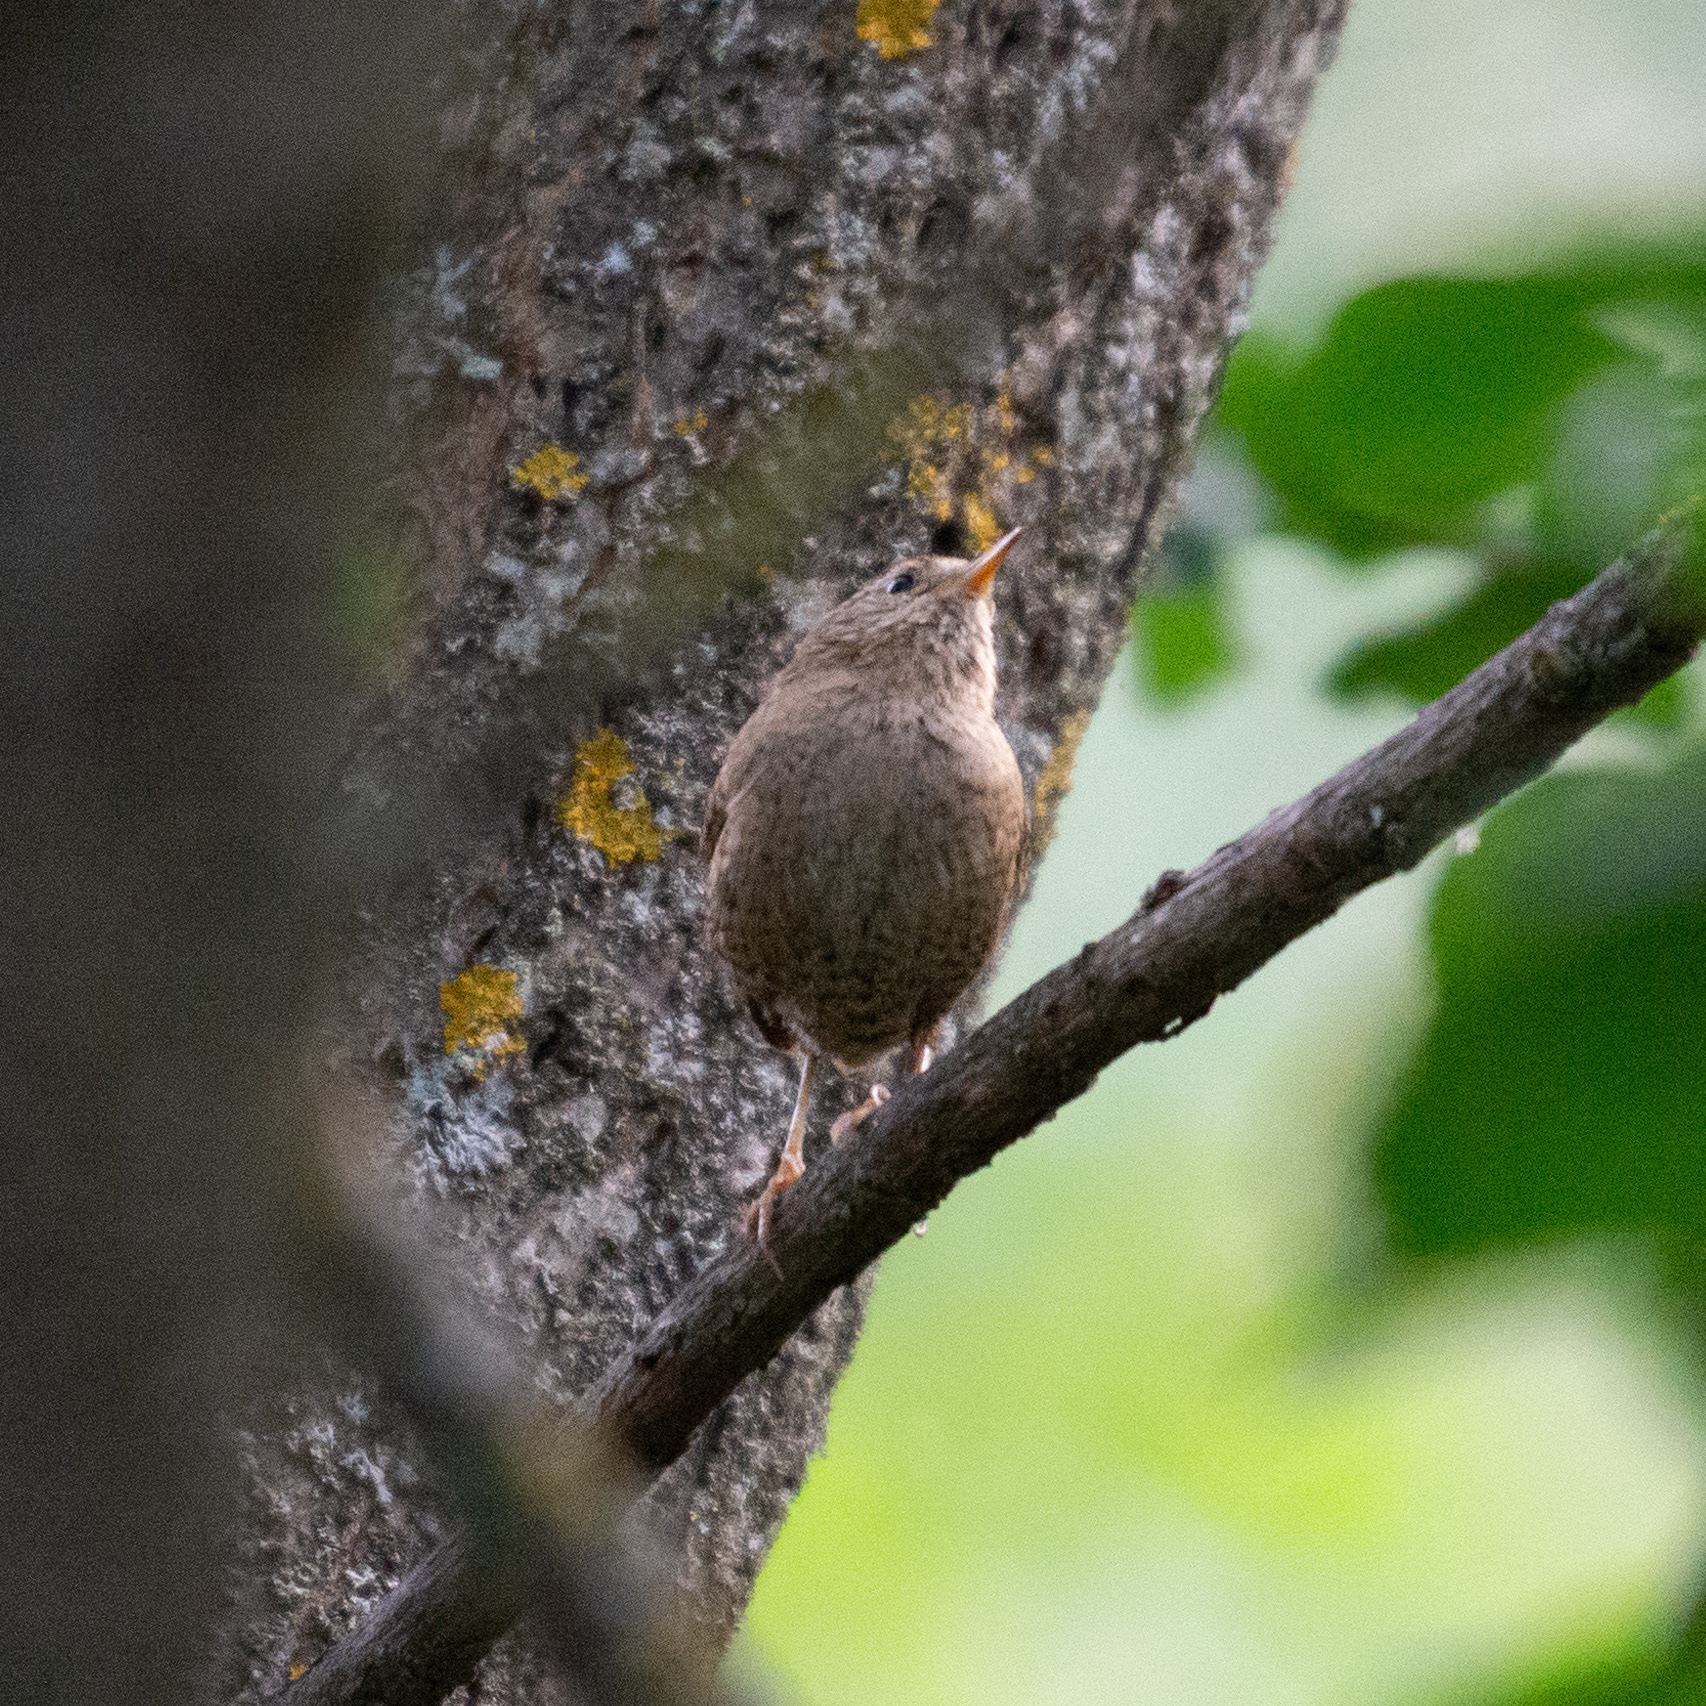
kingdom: Animalia
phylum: Chordata
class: Aves
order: Passeriformes
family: Troglodytidae
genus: Troglodytes
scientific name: Troglodytes troglodytes
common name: Eurasian wren
